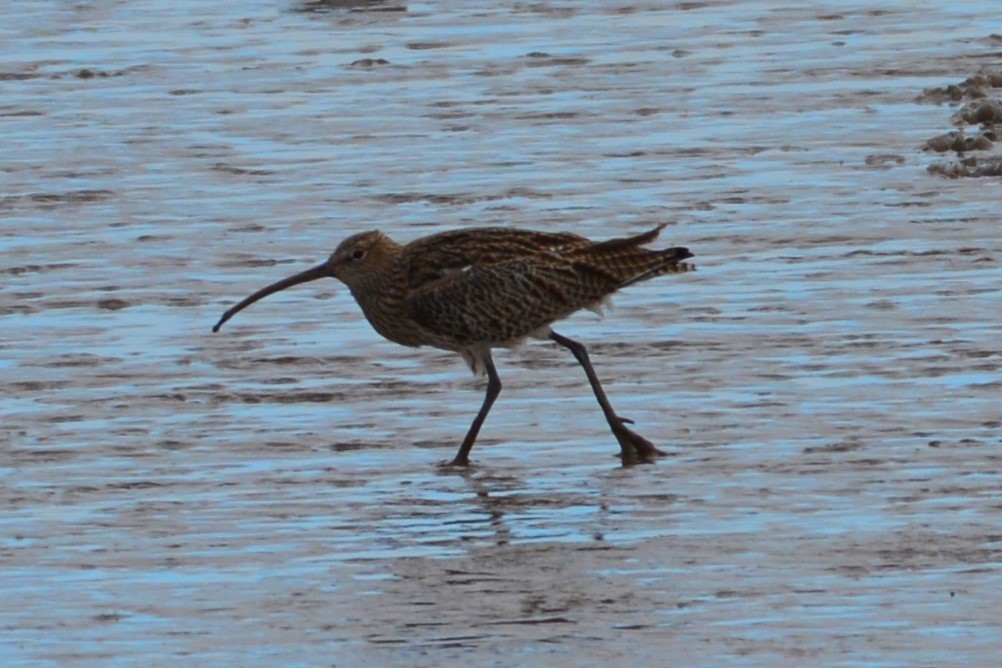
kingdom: Animalia
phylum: Chordata
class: Aves
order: Charadriiformes
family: Scolopacidae
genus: Numenius
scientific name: Numenius arquata
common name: Eurasian curlew
